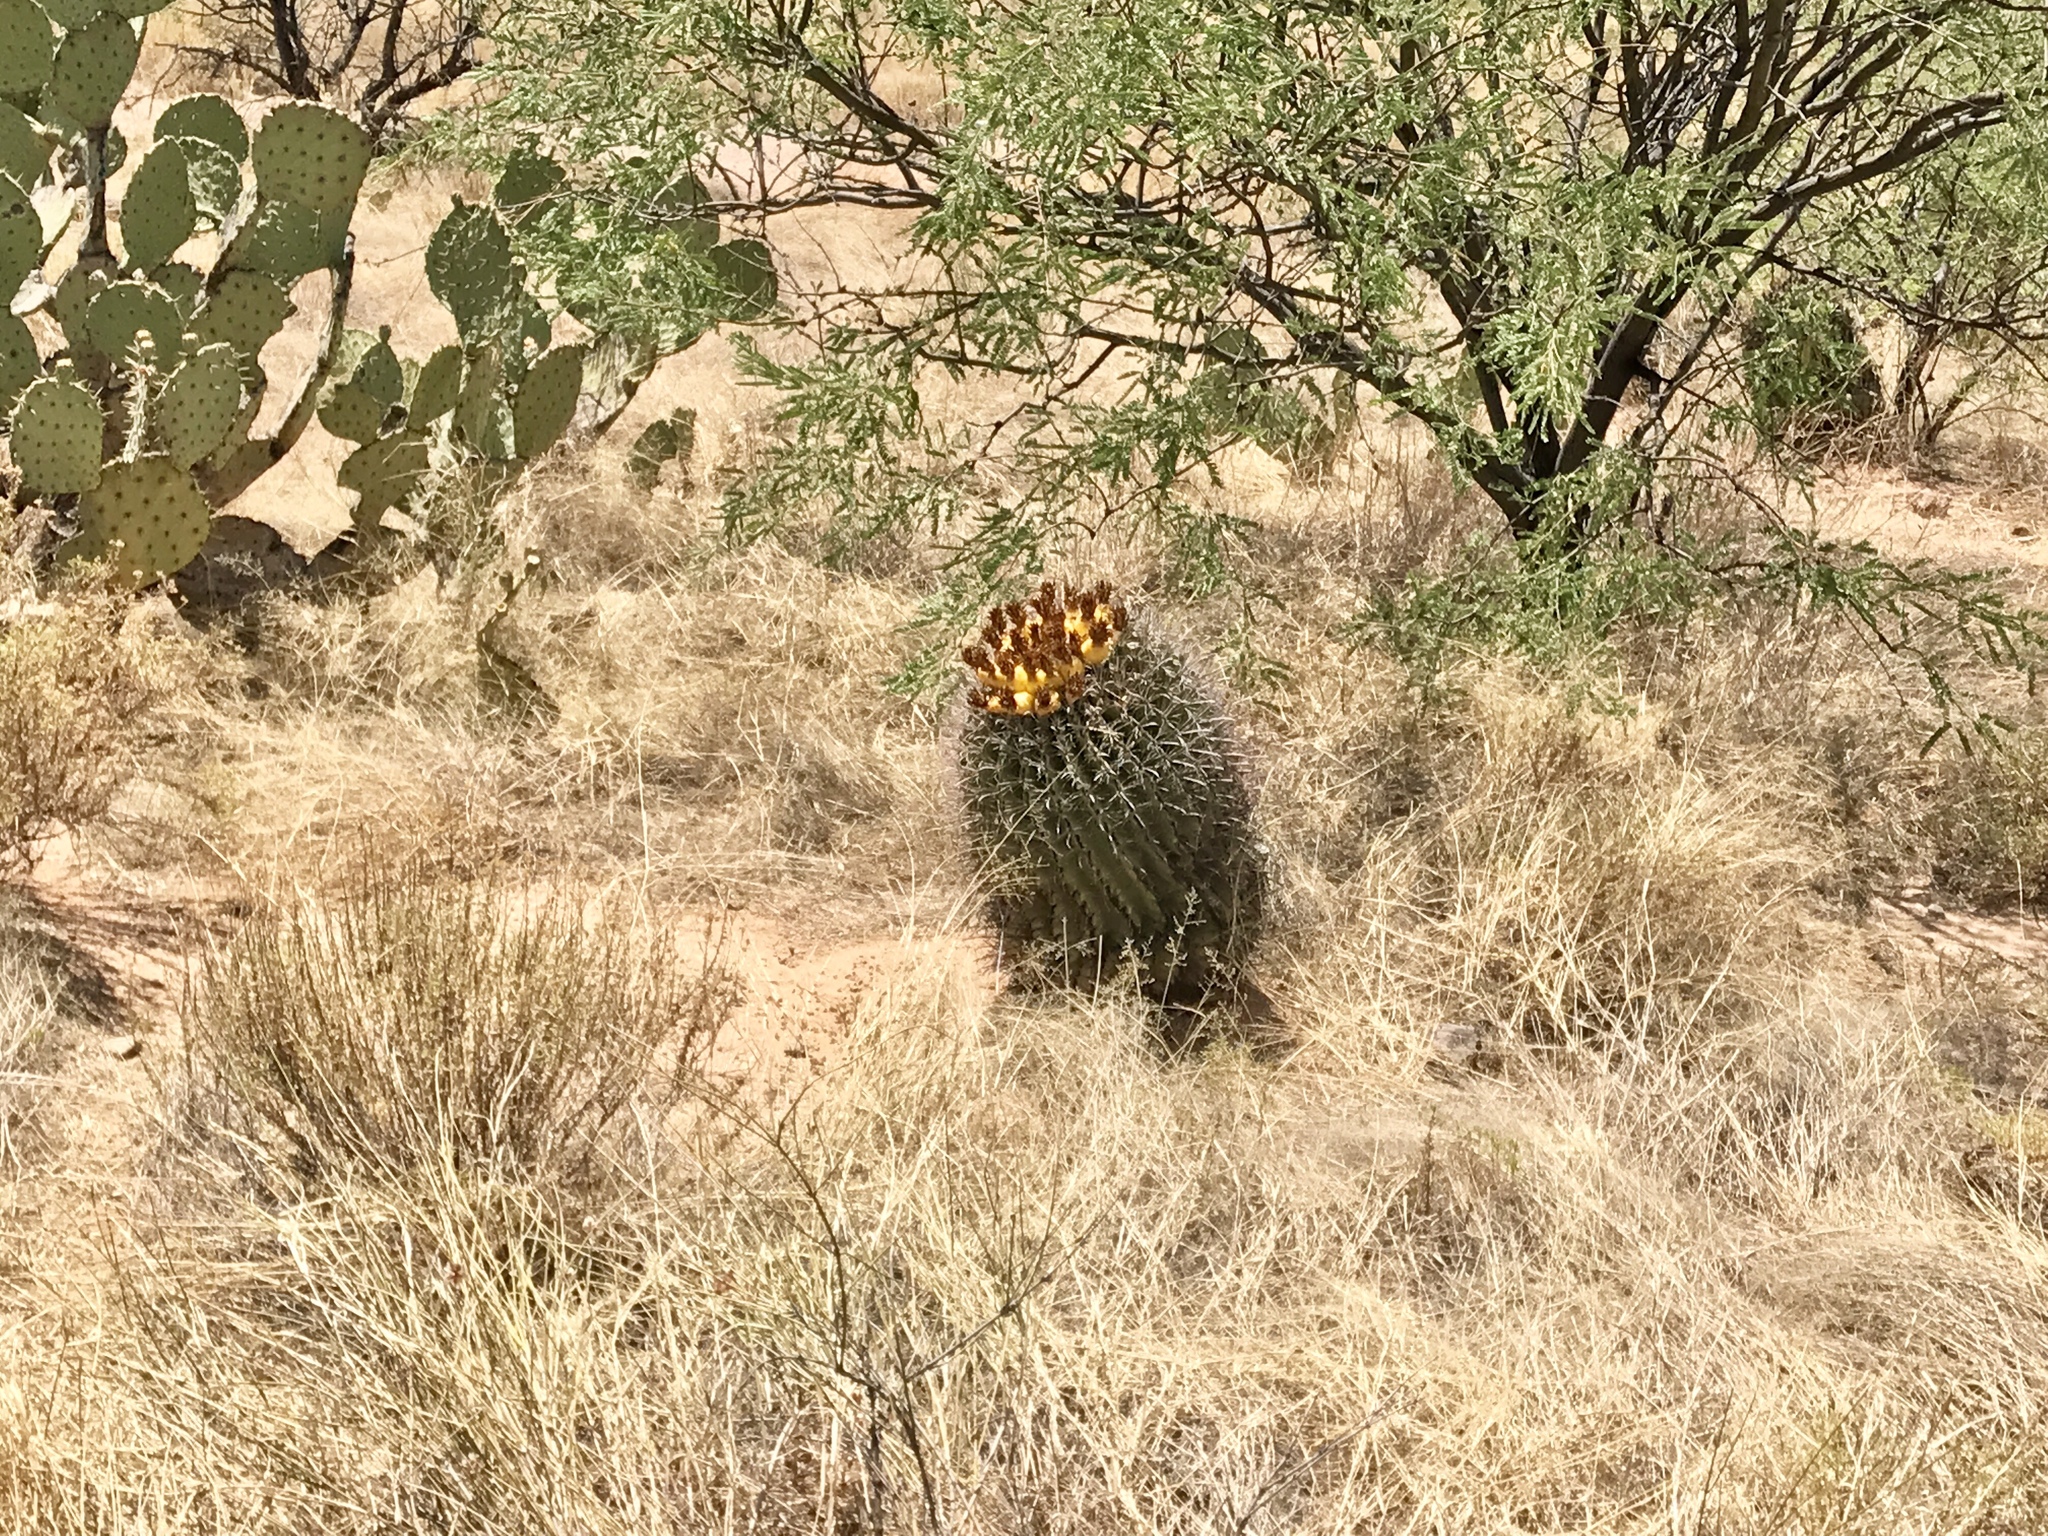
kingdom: Plantae
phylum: Tracheophyta
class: Magnoliopsida
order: Caryophyllales
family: Cactaceae
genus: Ferocactus
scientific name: Ferocactus wislizeni
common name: Candy barrel cactus
